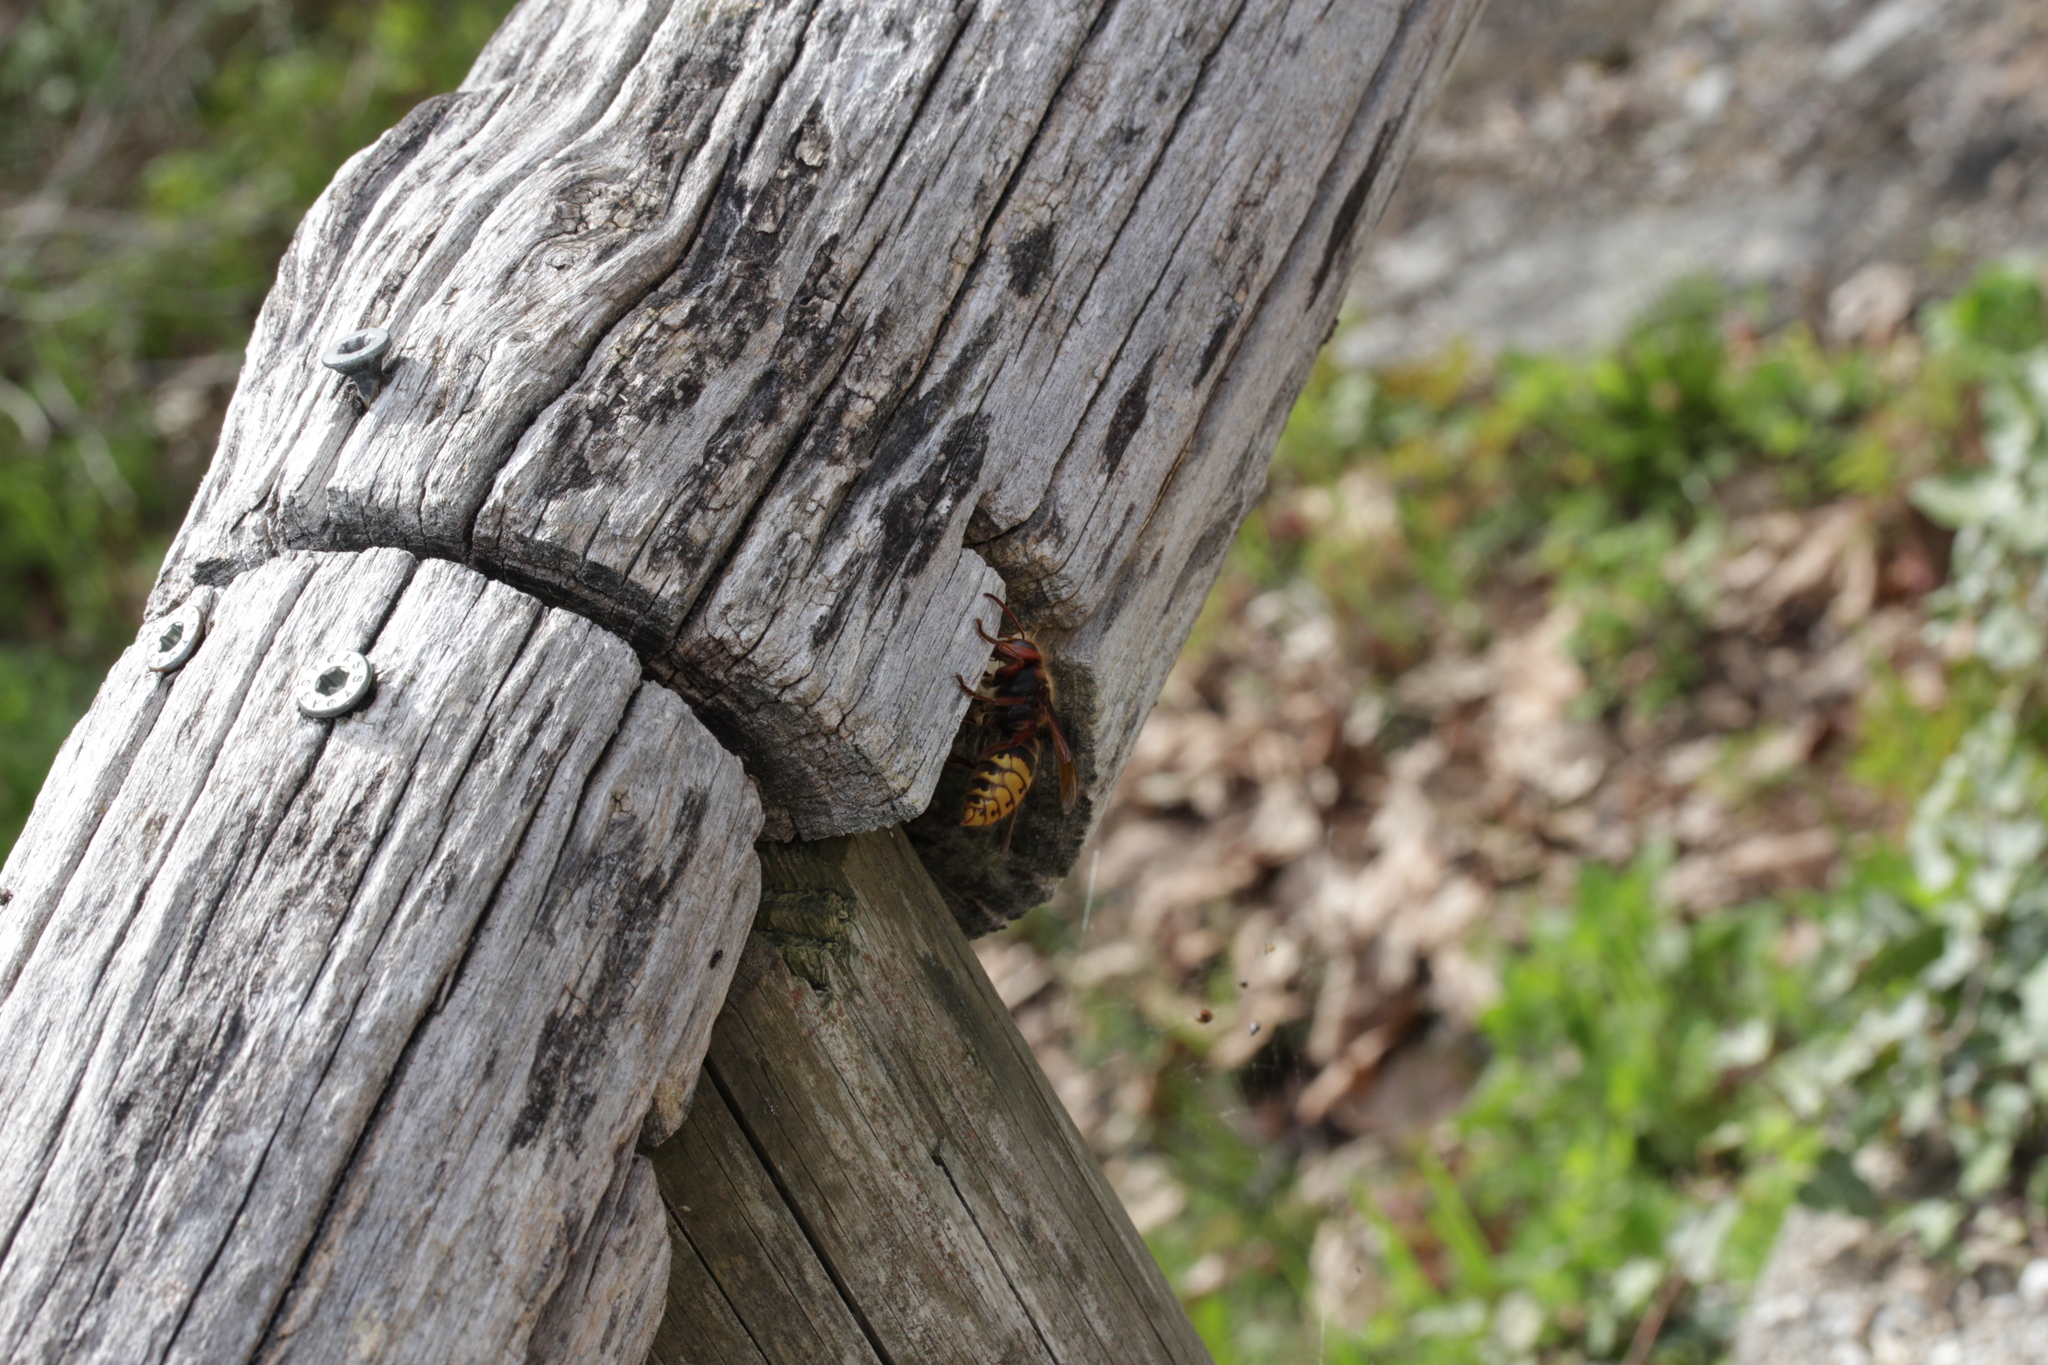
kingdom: Animalia
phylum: Arthropoda
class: Insecta
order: Hymenoptera
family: Vespidae
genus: Vespa
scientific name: Vespa crabro
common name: Hornet
